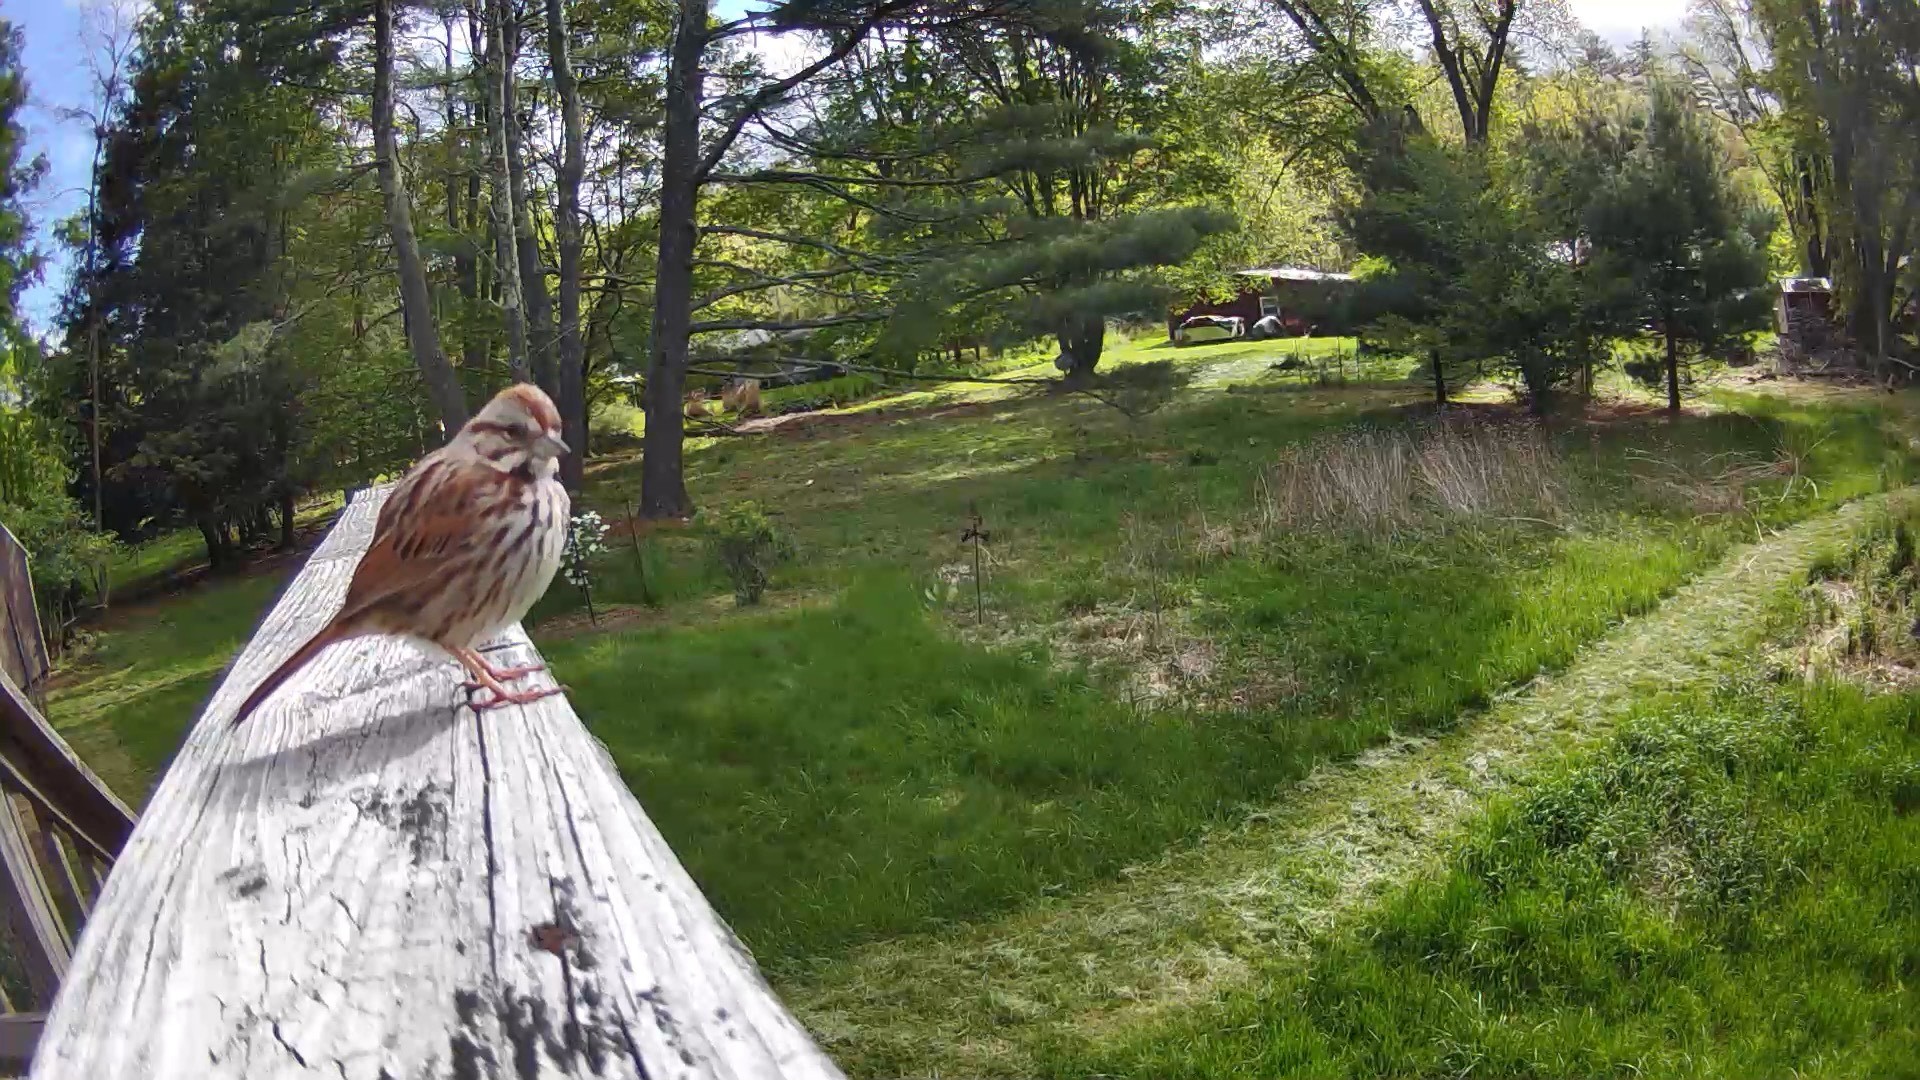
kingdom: Animalia
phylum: Chordata
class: Aves
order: Passeriformes
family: Passerellidae
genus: Melospiza
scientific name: Melospiza melodia
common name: Song sparrow
